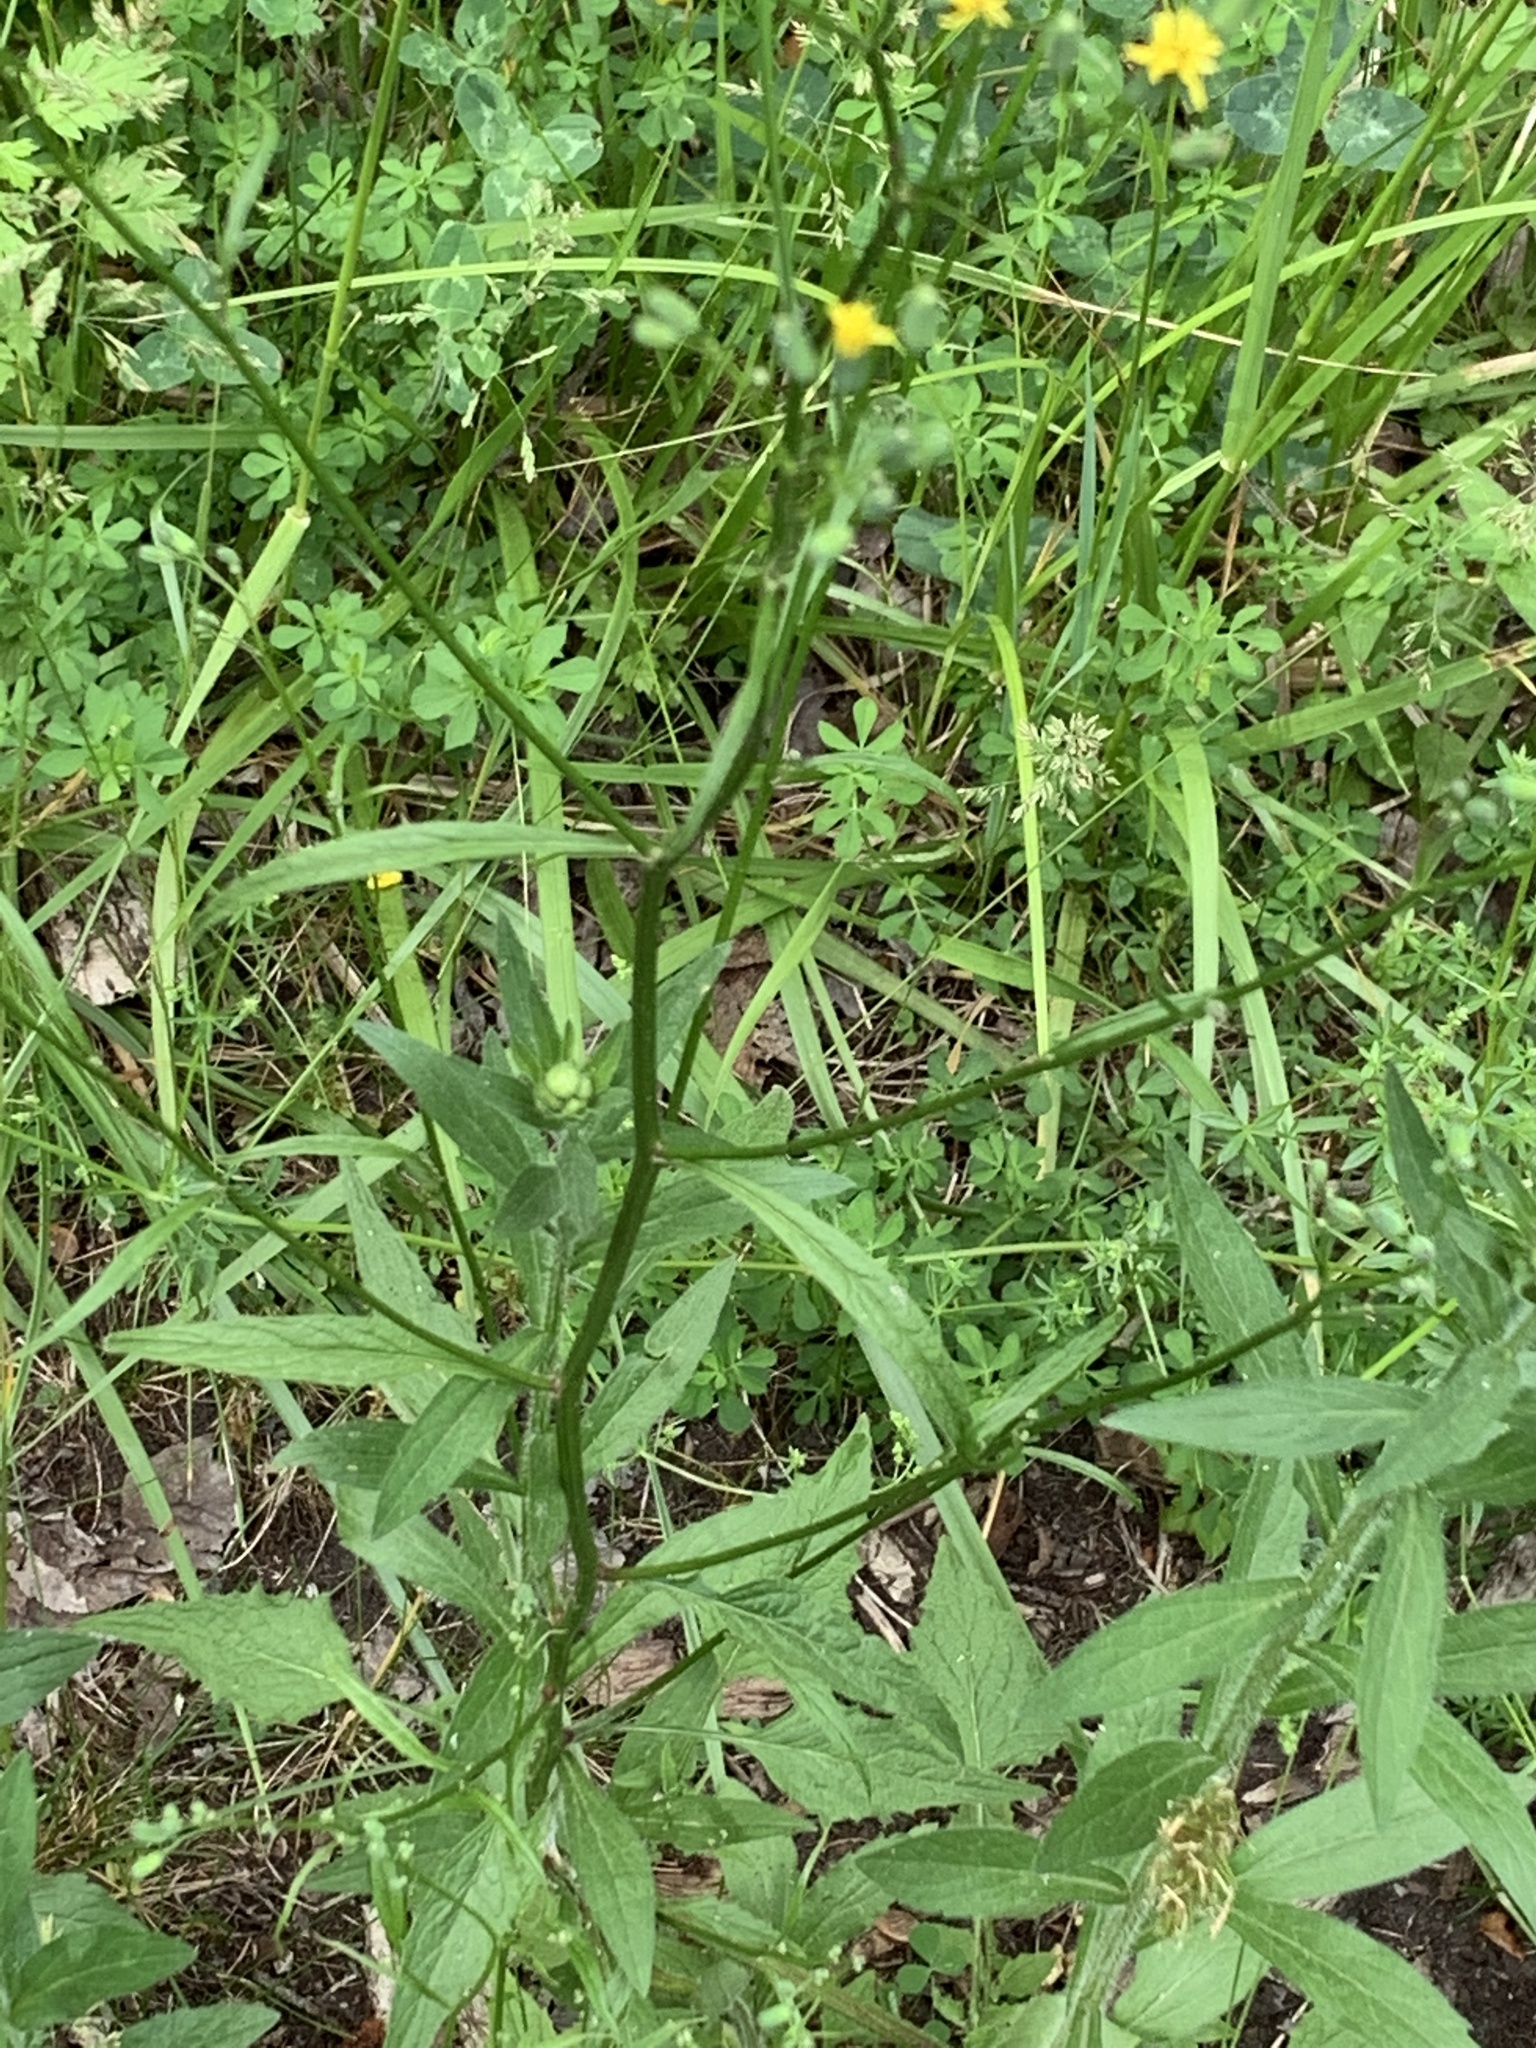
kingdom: Plantae
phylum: Tracheophyta
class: Magnoliopsida
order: Asterales
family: Asteraceae
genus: Lapsana
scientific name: Lapsana communis
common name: Nipplewort
